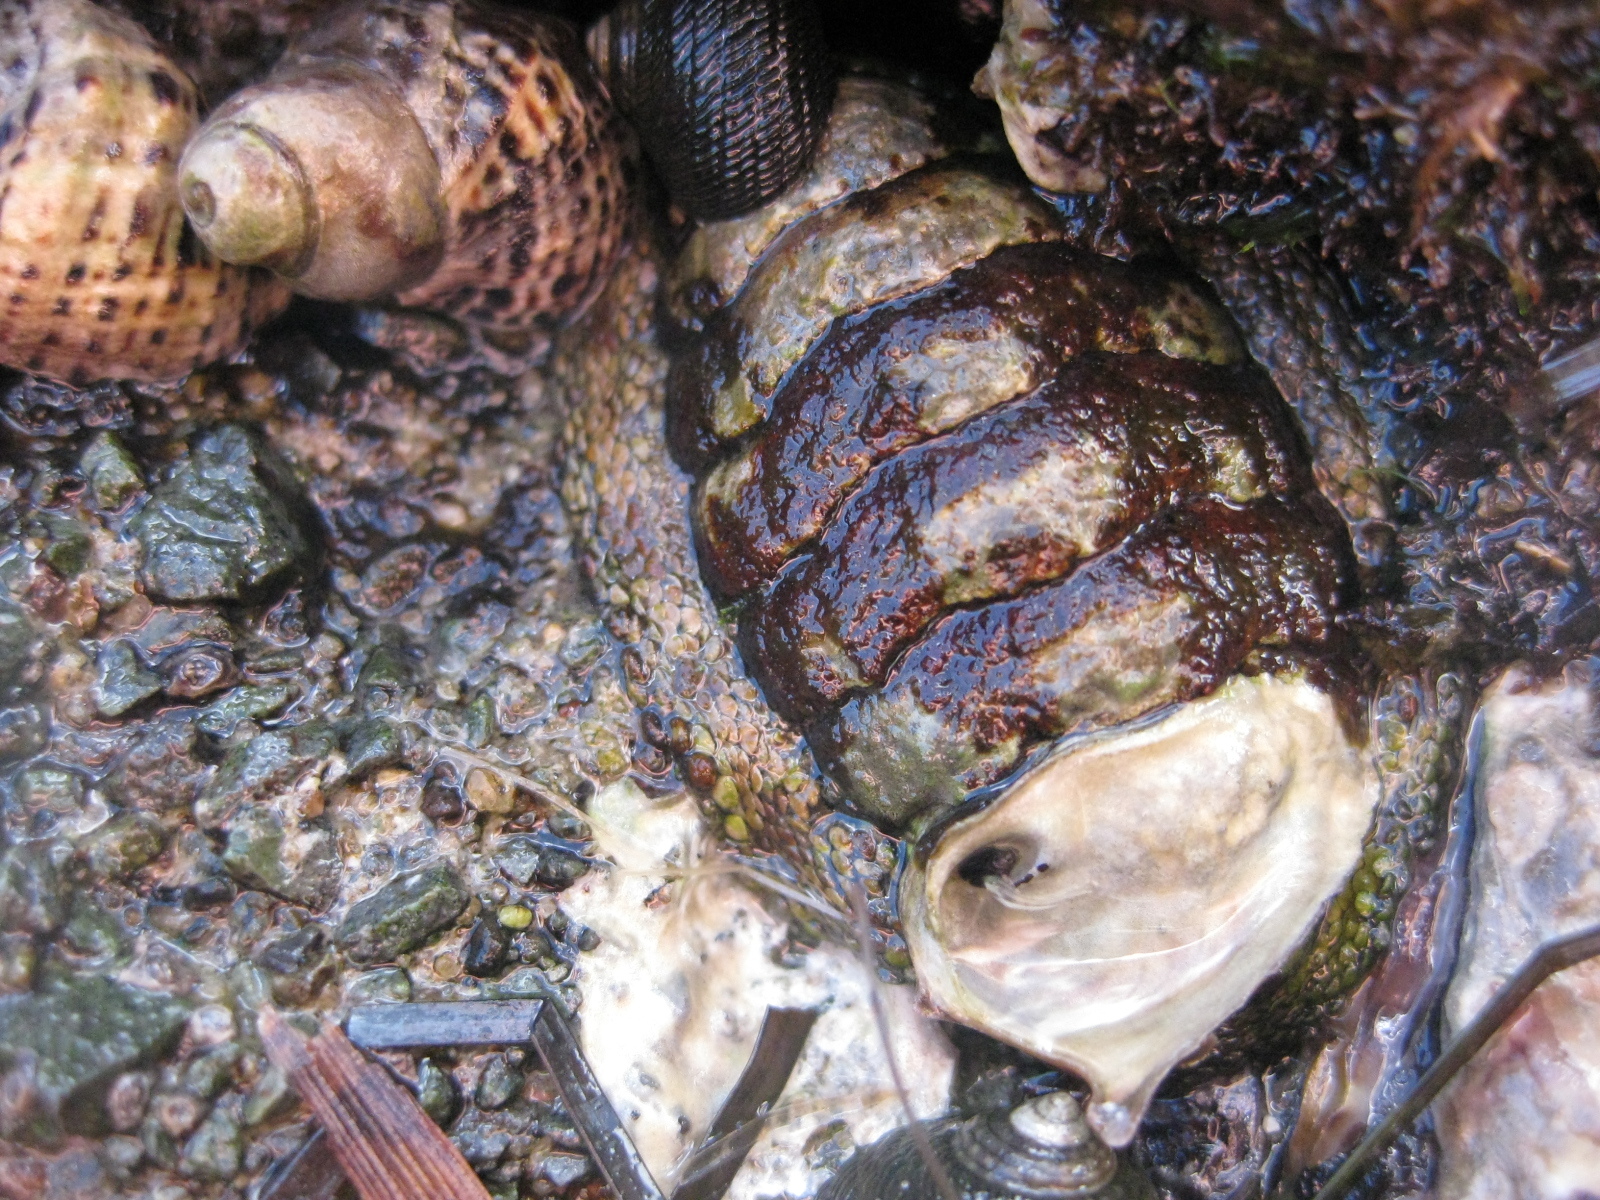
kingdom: Animalia
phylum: Mollusca
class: Polyplacophora
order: Chitonida
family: Chitonidae
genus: Sypharochiton
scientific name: Sypharochiton pelliserpentis
